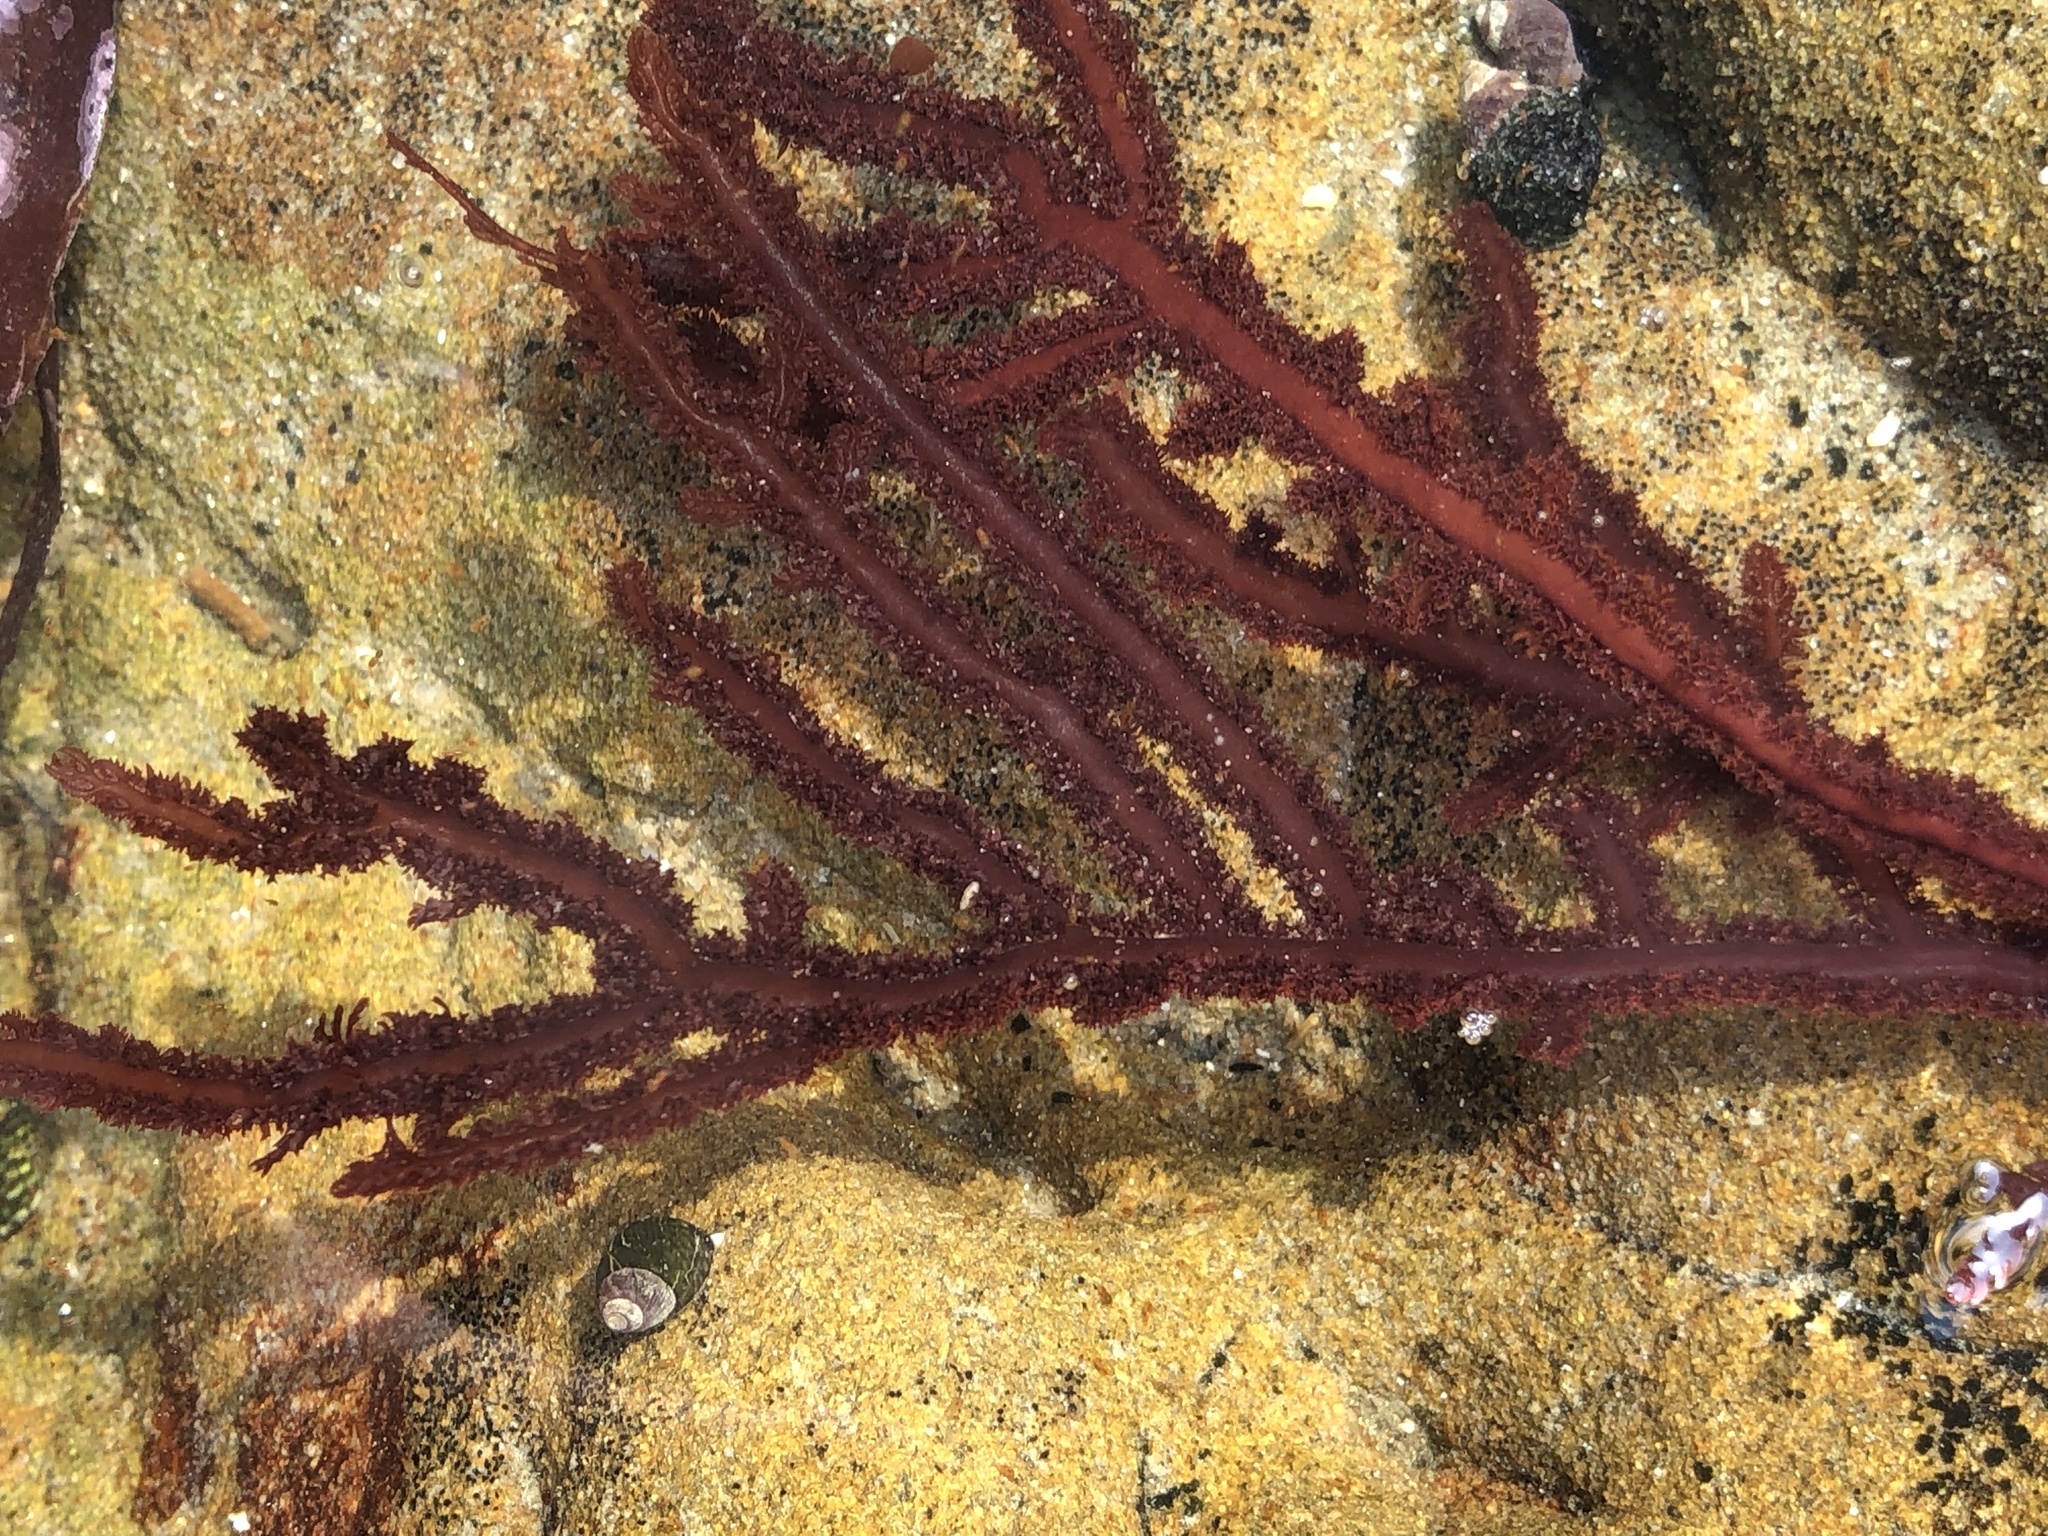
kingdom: Plantae
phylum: Rhodophyta
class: Florideophyceae
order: Ceramiales
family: Wrangeliaceae
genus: Neoptilota
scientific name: Neoptilota densa
